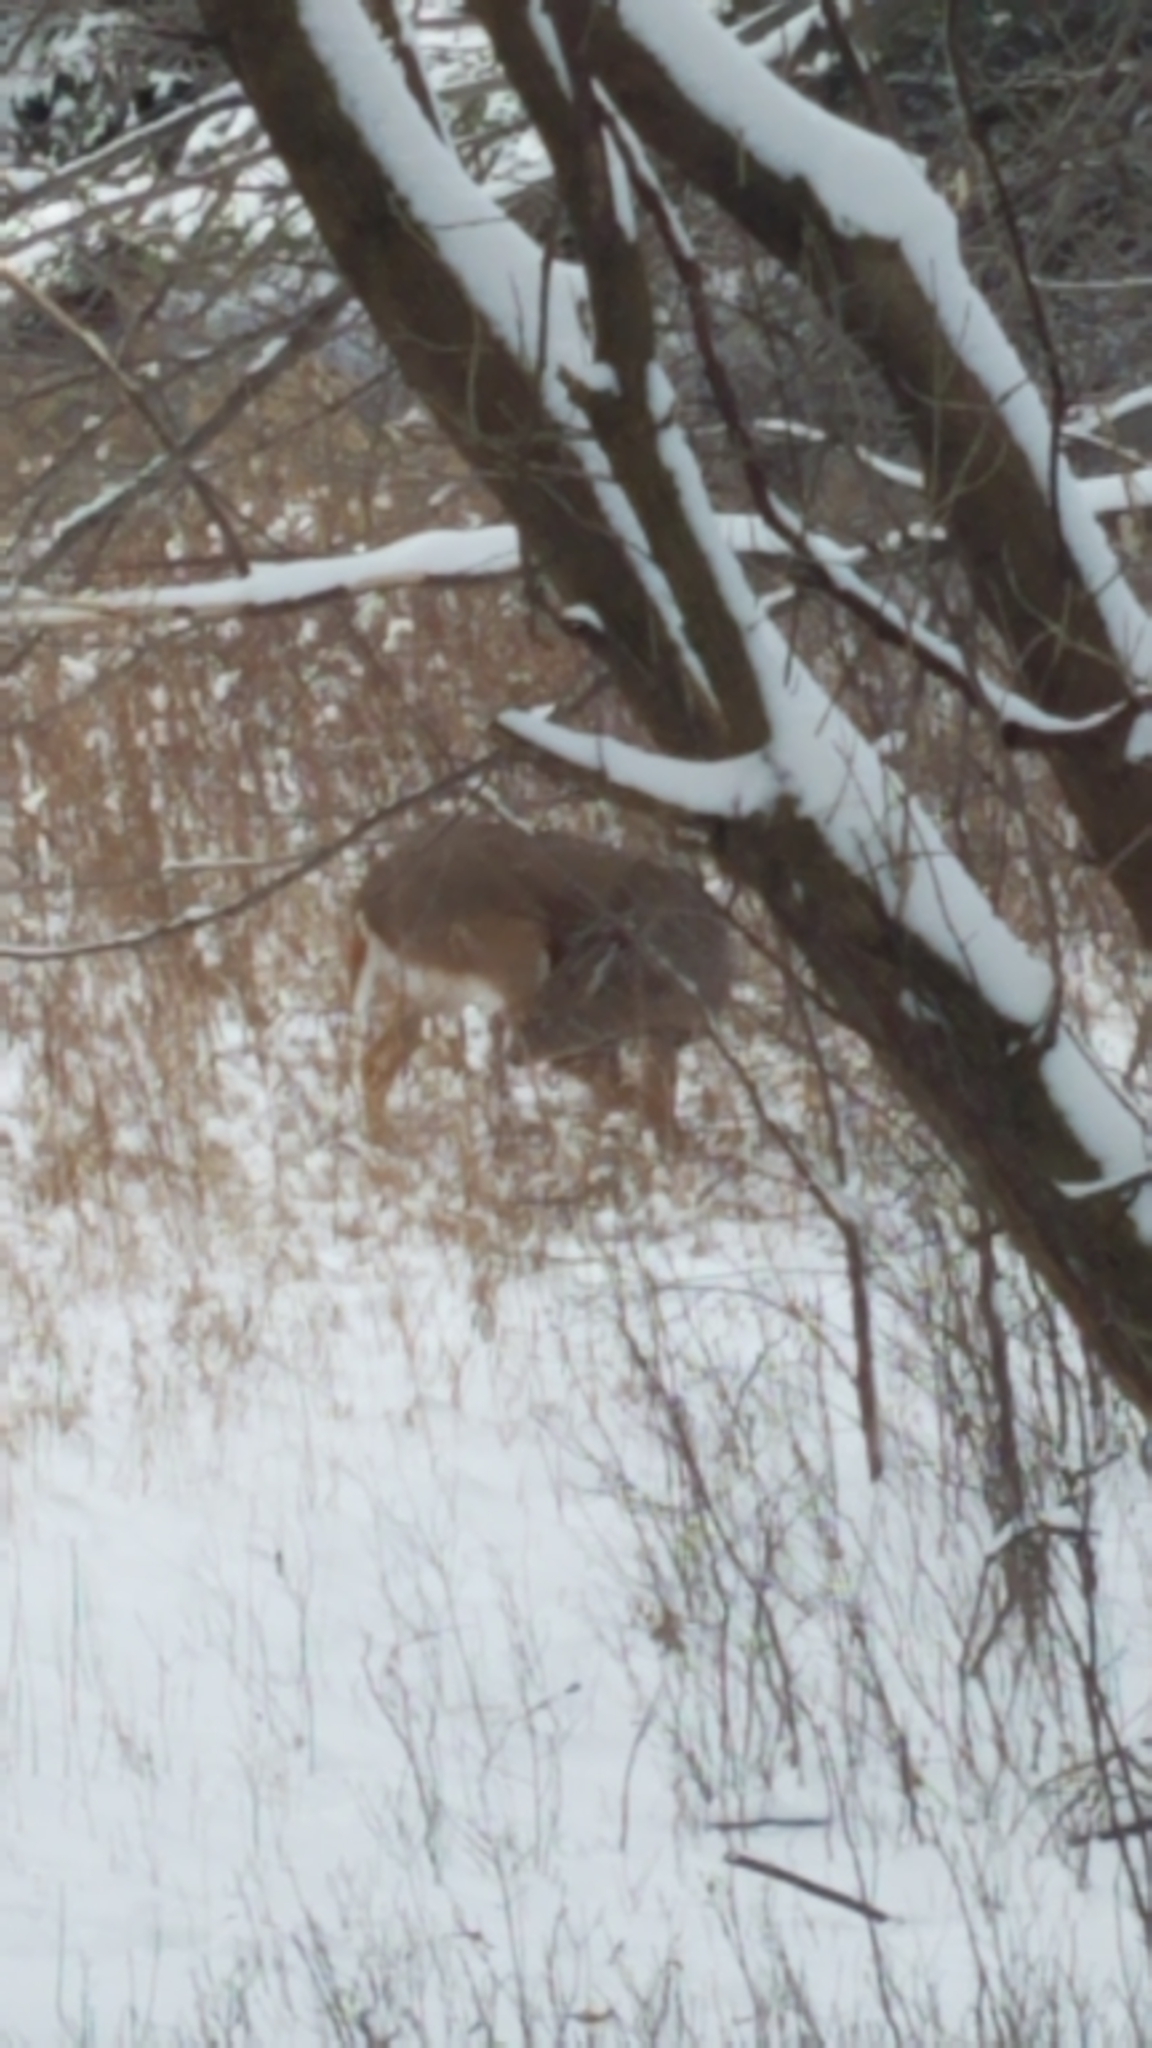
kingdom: Animalia
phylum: Chordata
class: Mammalia
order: Artiodactyla
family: Cervidae
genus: Odocoileus
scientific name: Odocoileus virginianus
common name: White-tailed deer
